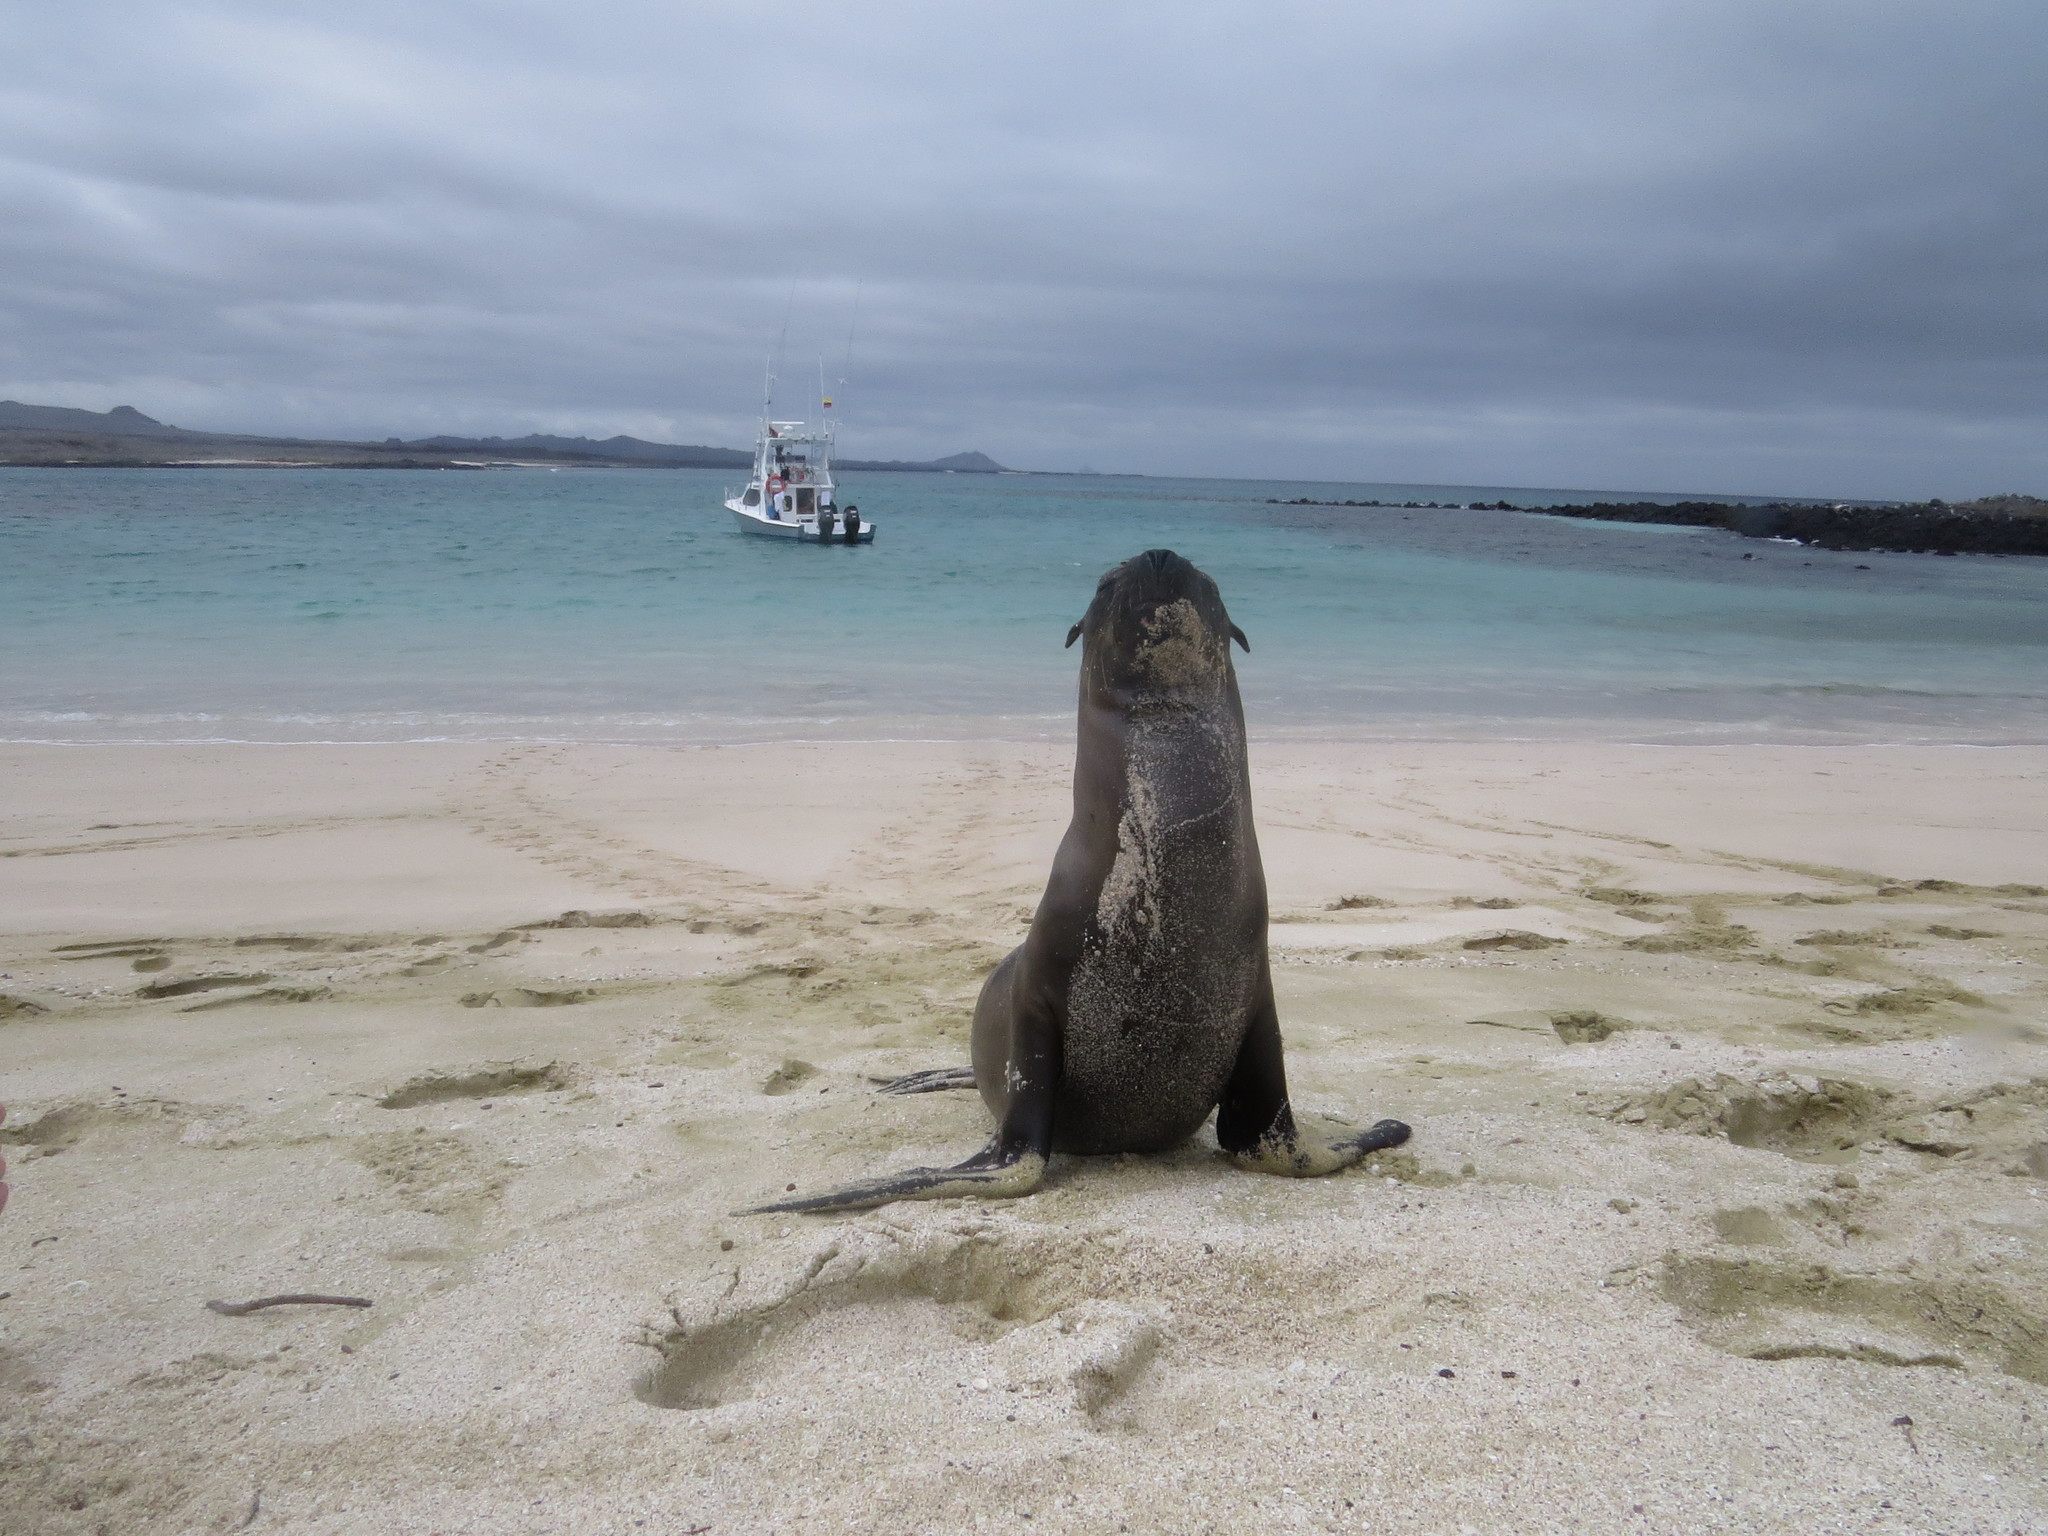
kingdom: Animalia
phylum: Chordata
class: Mammalia
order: Carnivora
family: Otariidae
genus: Zalophus
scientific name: Zalophus wollebaeki
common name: Galapagos sea lion
